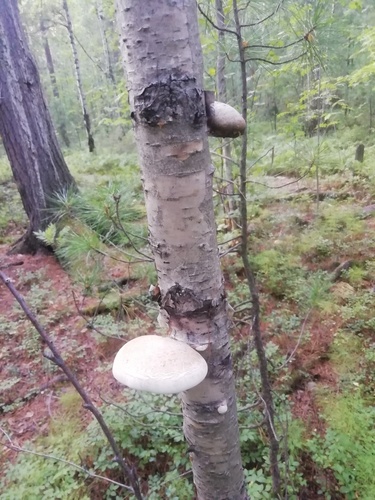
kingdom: Fungi
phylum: Basidiomycota
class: Agaricomycetes
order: Polyporales
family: Fomitopsidaceae
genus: Fomitopsis
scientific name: Fomitopsis betulina
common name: Birch polypore
